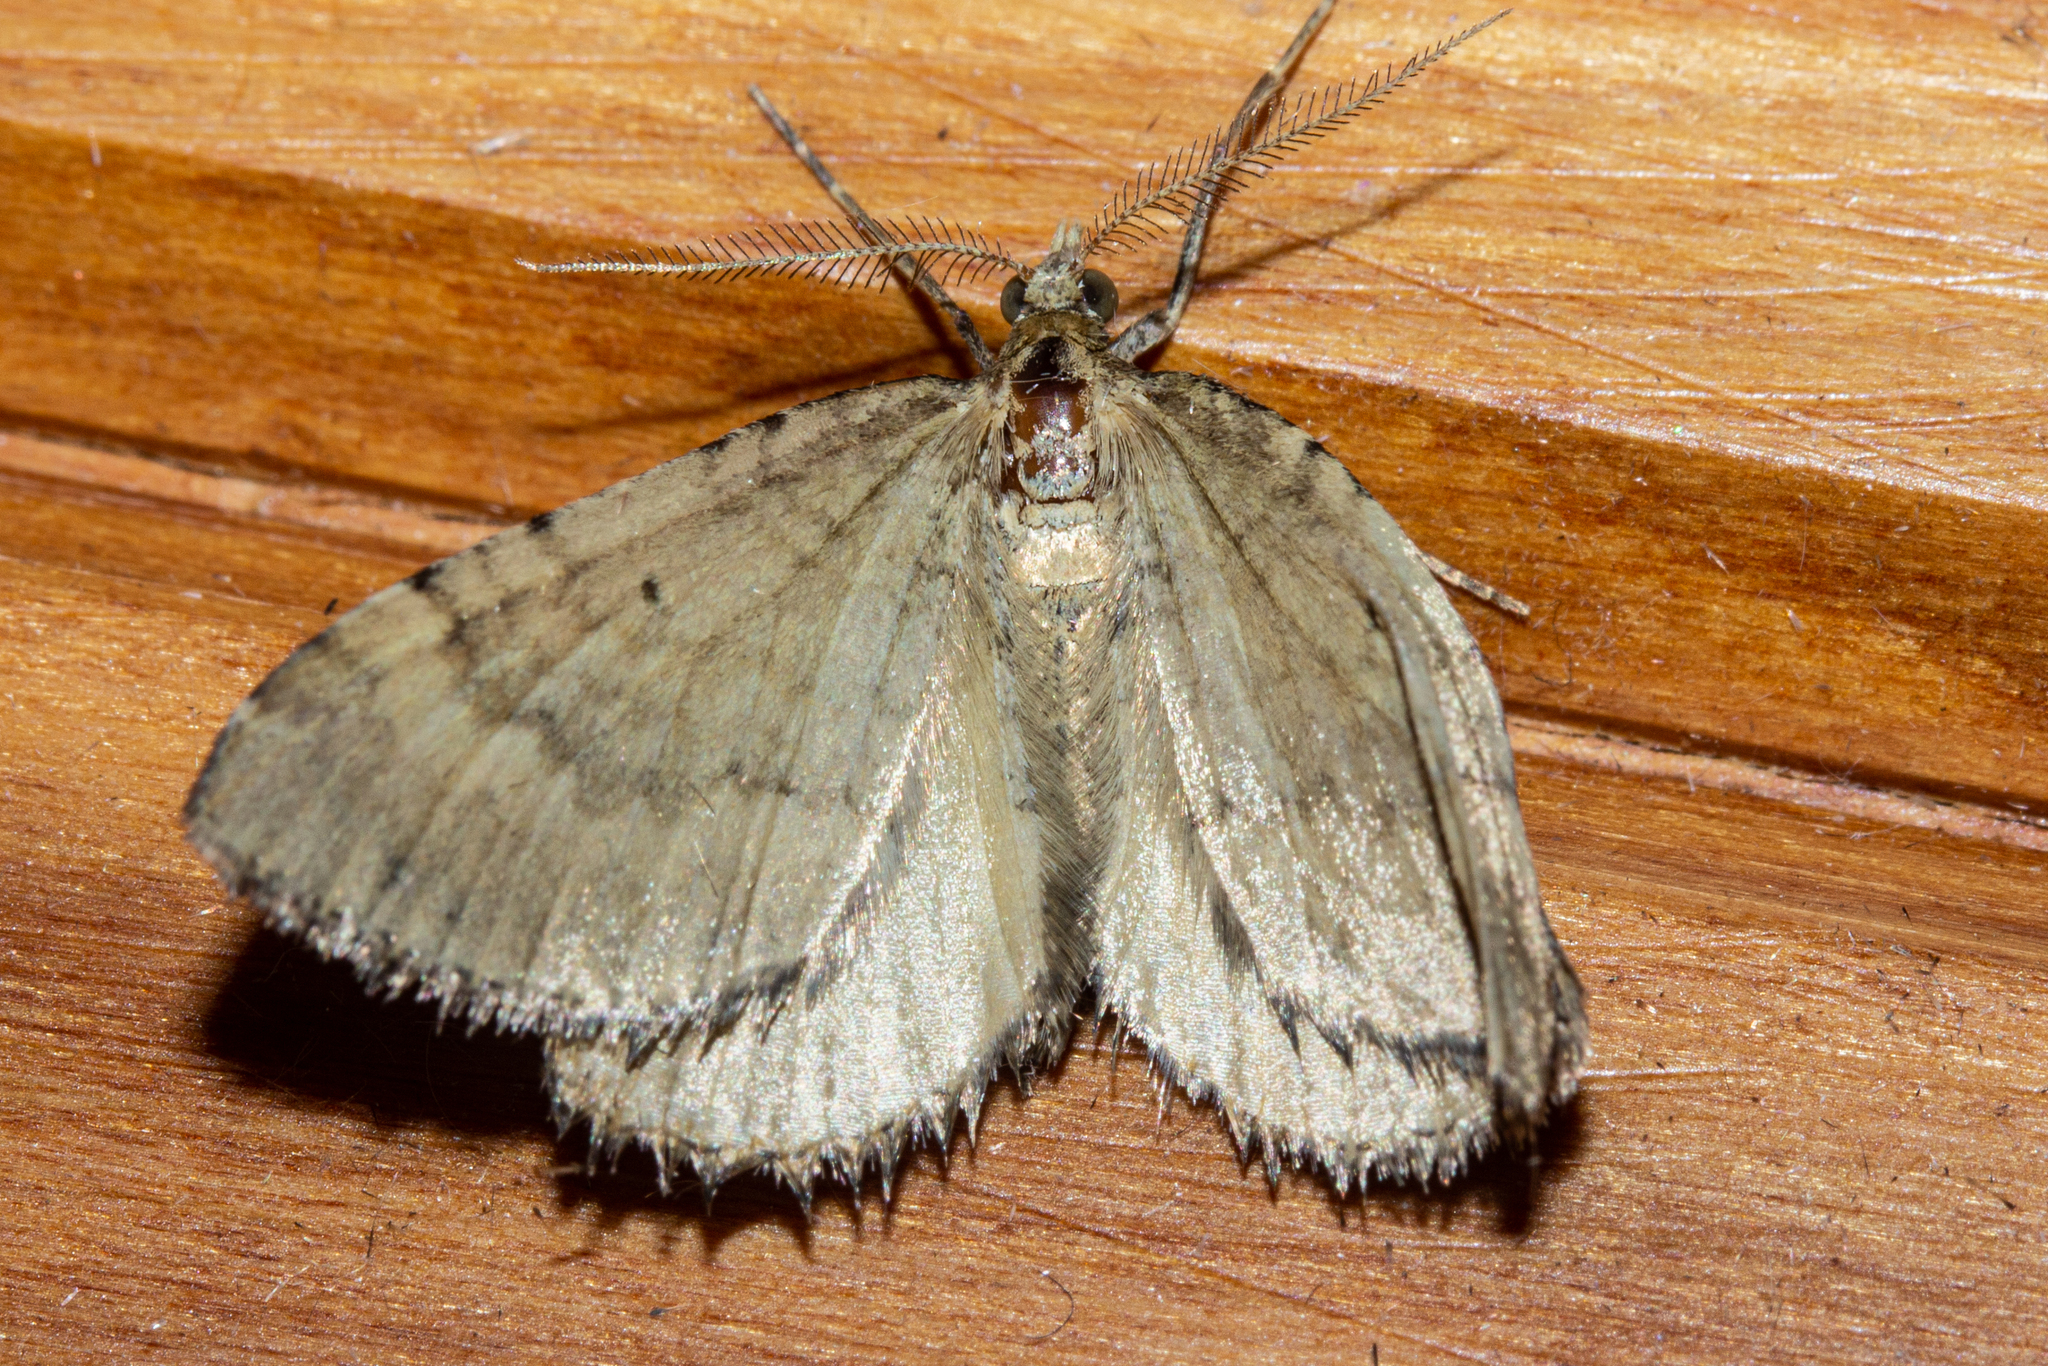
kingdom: Animalia
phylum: Arthropoda
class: Insecta
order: Lepidoptera
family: Geometridae
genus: Asaphodes
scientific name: Asaphodes aegrota
